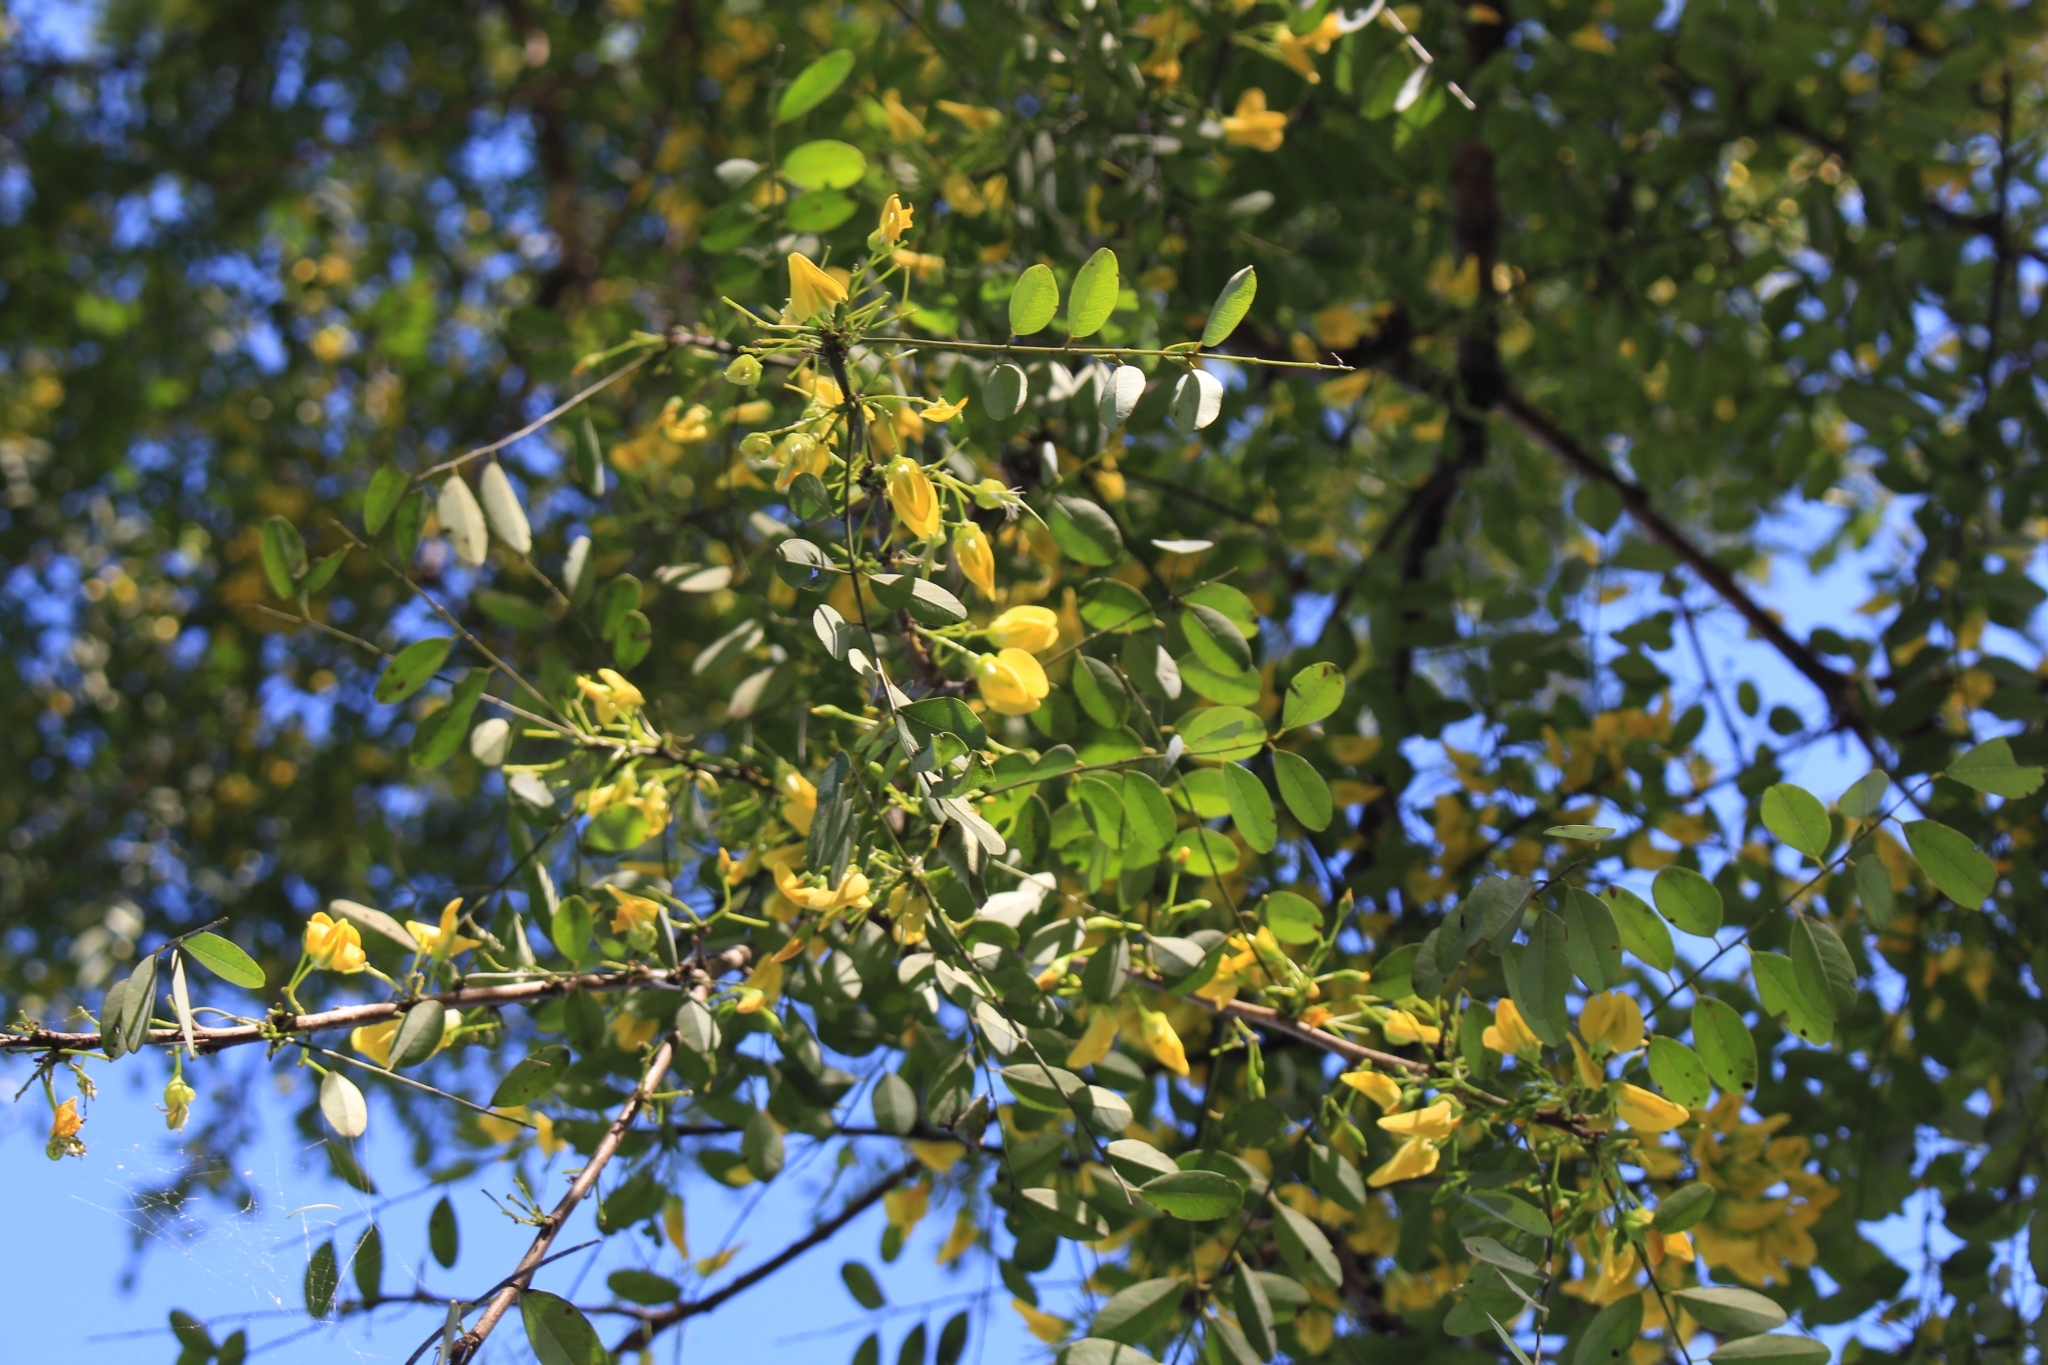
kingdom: Plantae
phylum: Tracheophyta
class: Magnoliopsida
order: Fabales
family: Fabaceae
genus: Diphysa
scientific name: Diphysa americana
